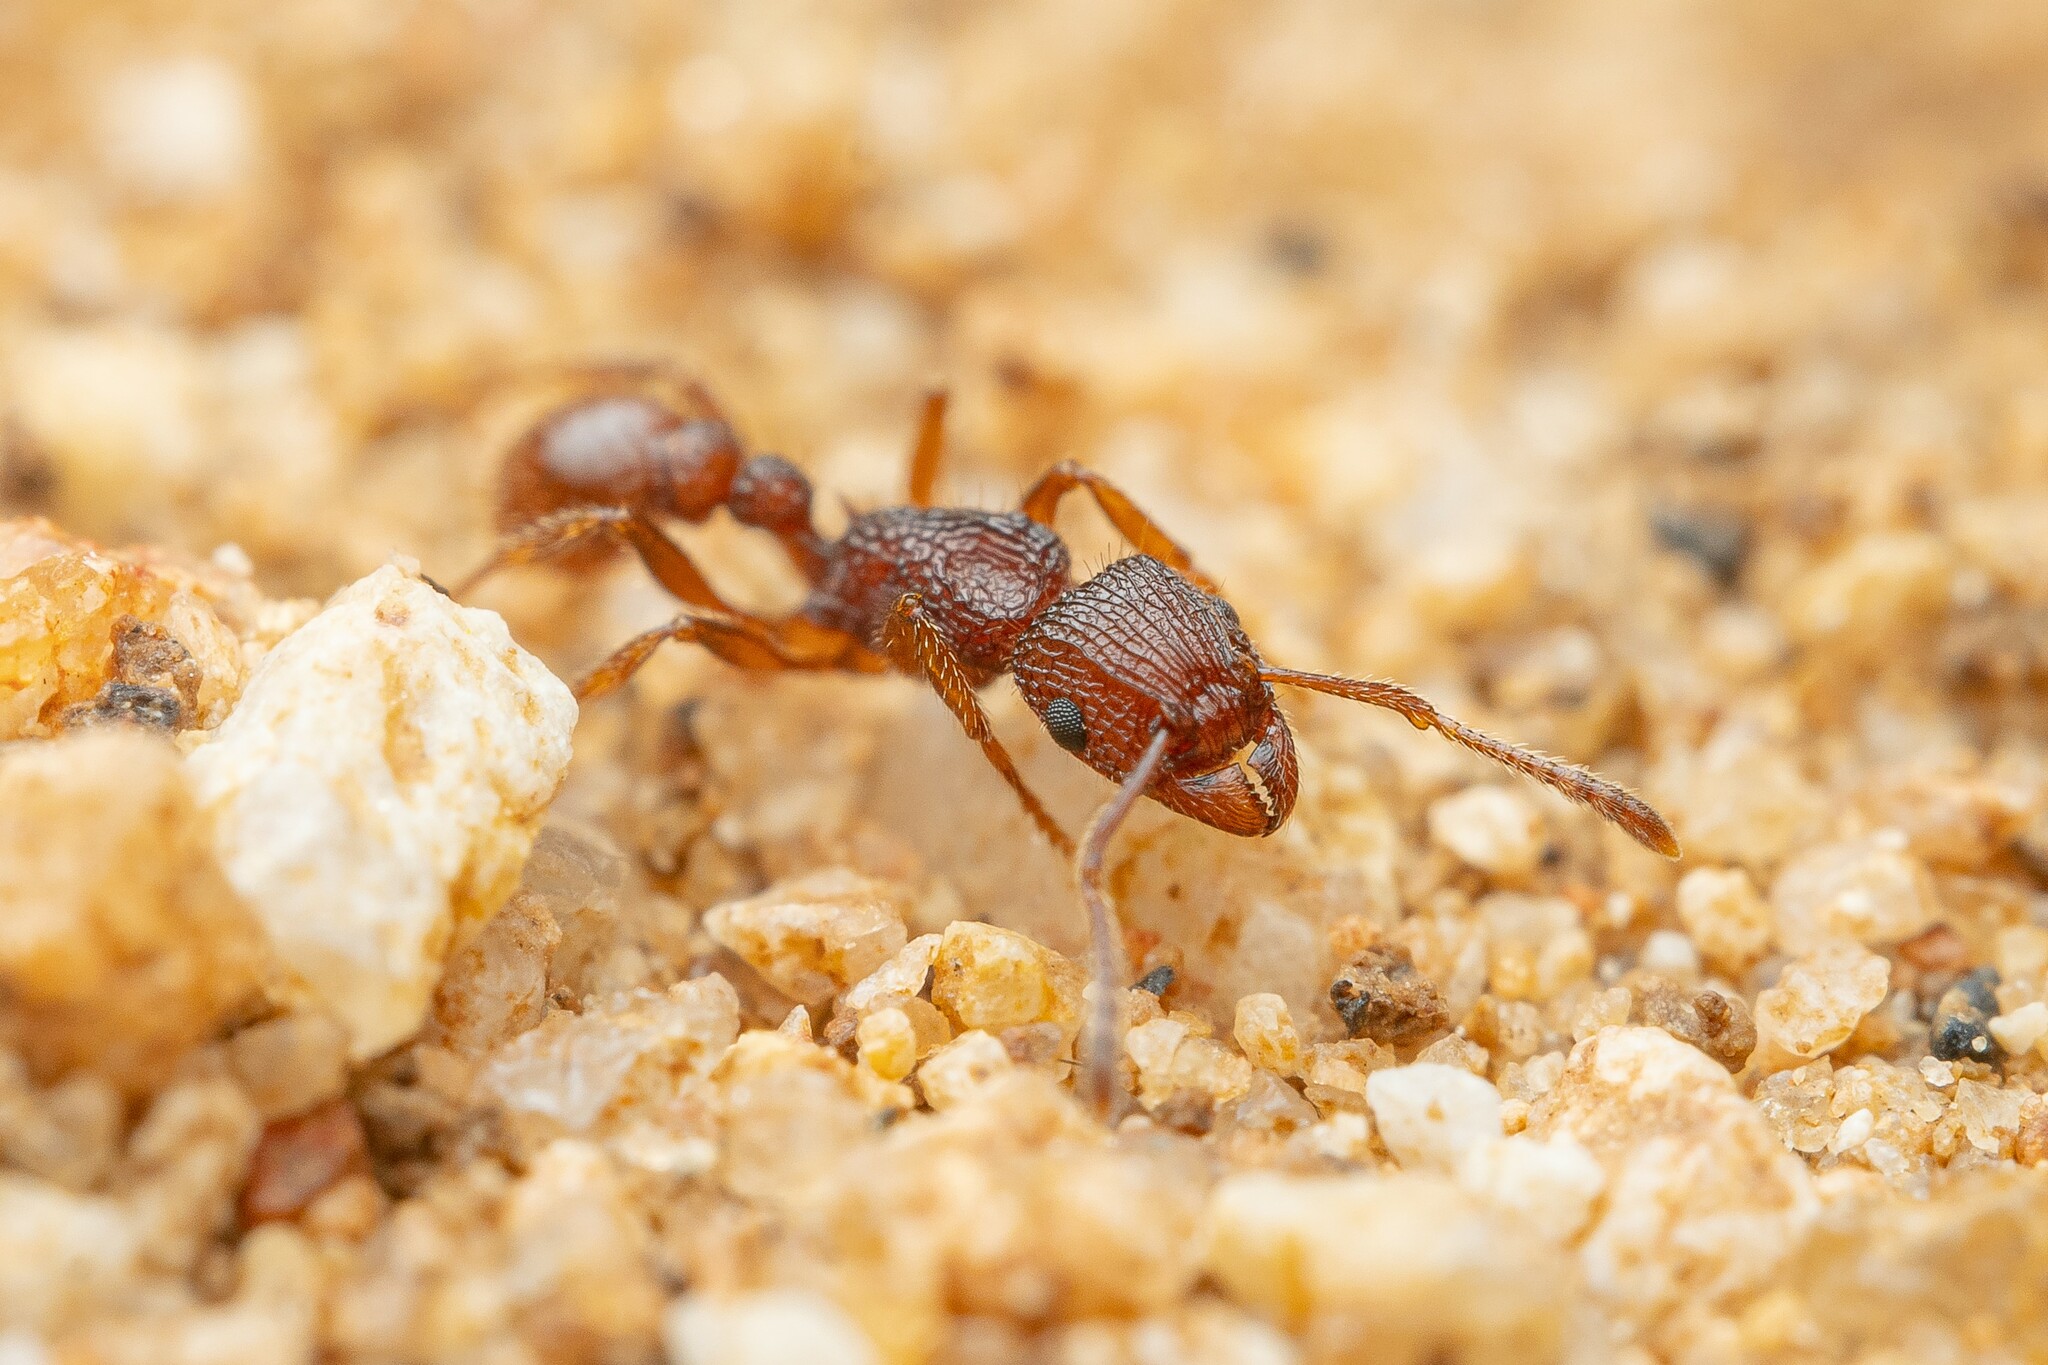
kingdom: Animalia
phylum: Arthropoda
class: Insecta
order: Hymenoptera
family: Formicidae
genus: Tetramorium
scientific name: Tetramorium hispidum
